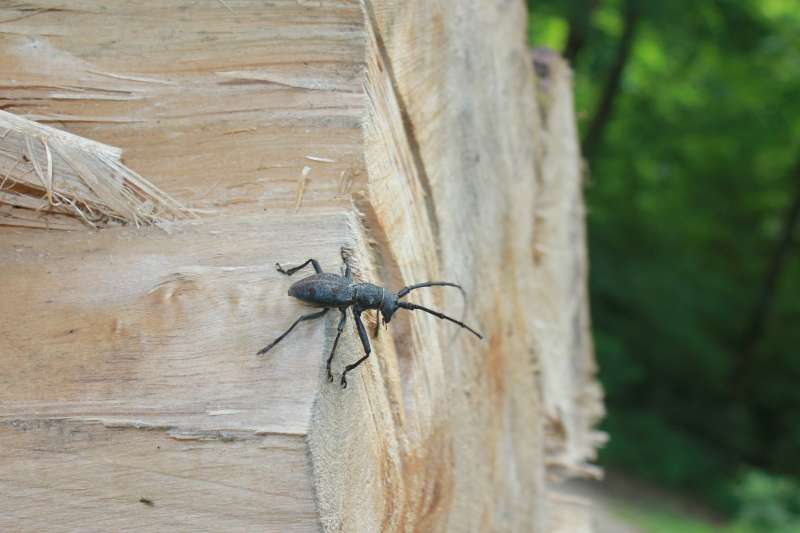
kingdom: Animalia
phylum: Arthropoda
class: Insecta
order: Coleoptera
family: Cerambycidae
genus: Morimus
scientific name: Morimus asper
